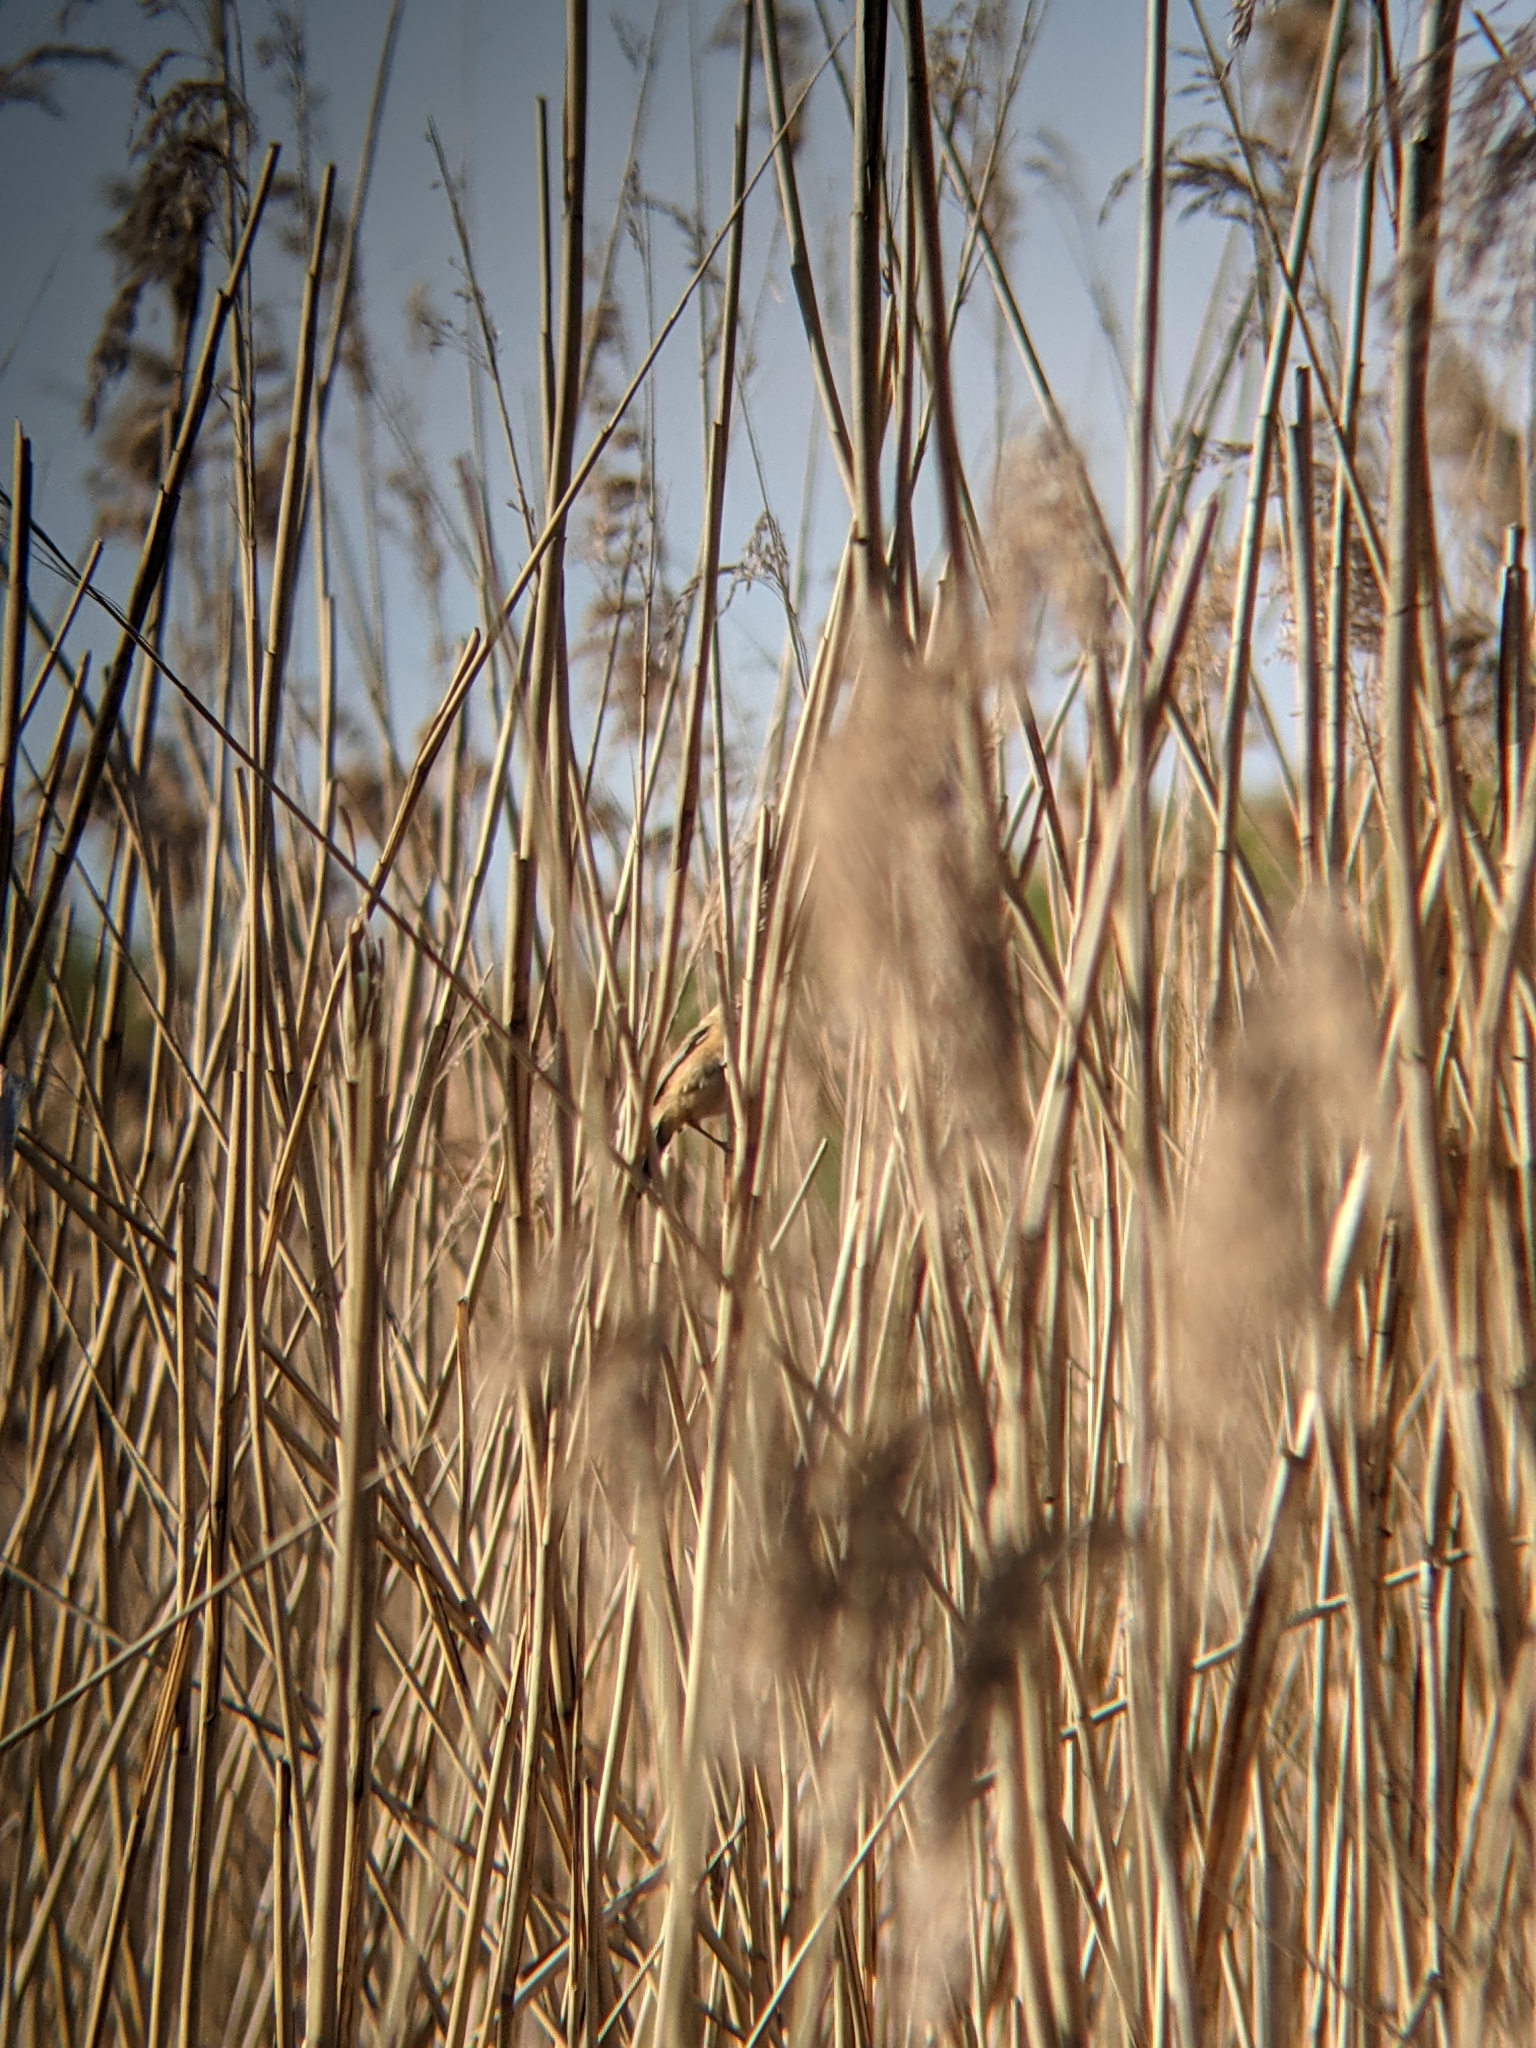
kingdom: Animalia
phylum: Chordata
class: Aves
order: Passeriformes
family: Panuridae
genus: Panurus
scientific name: Panurus biarmicus
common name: Bearded reedling
